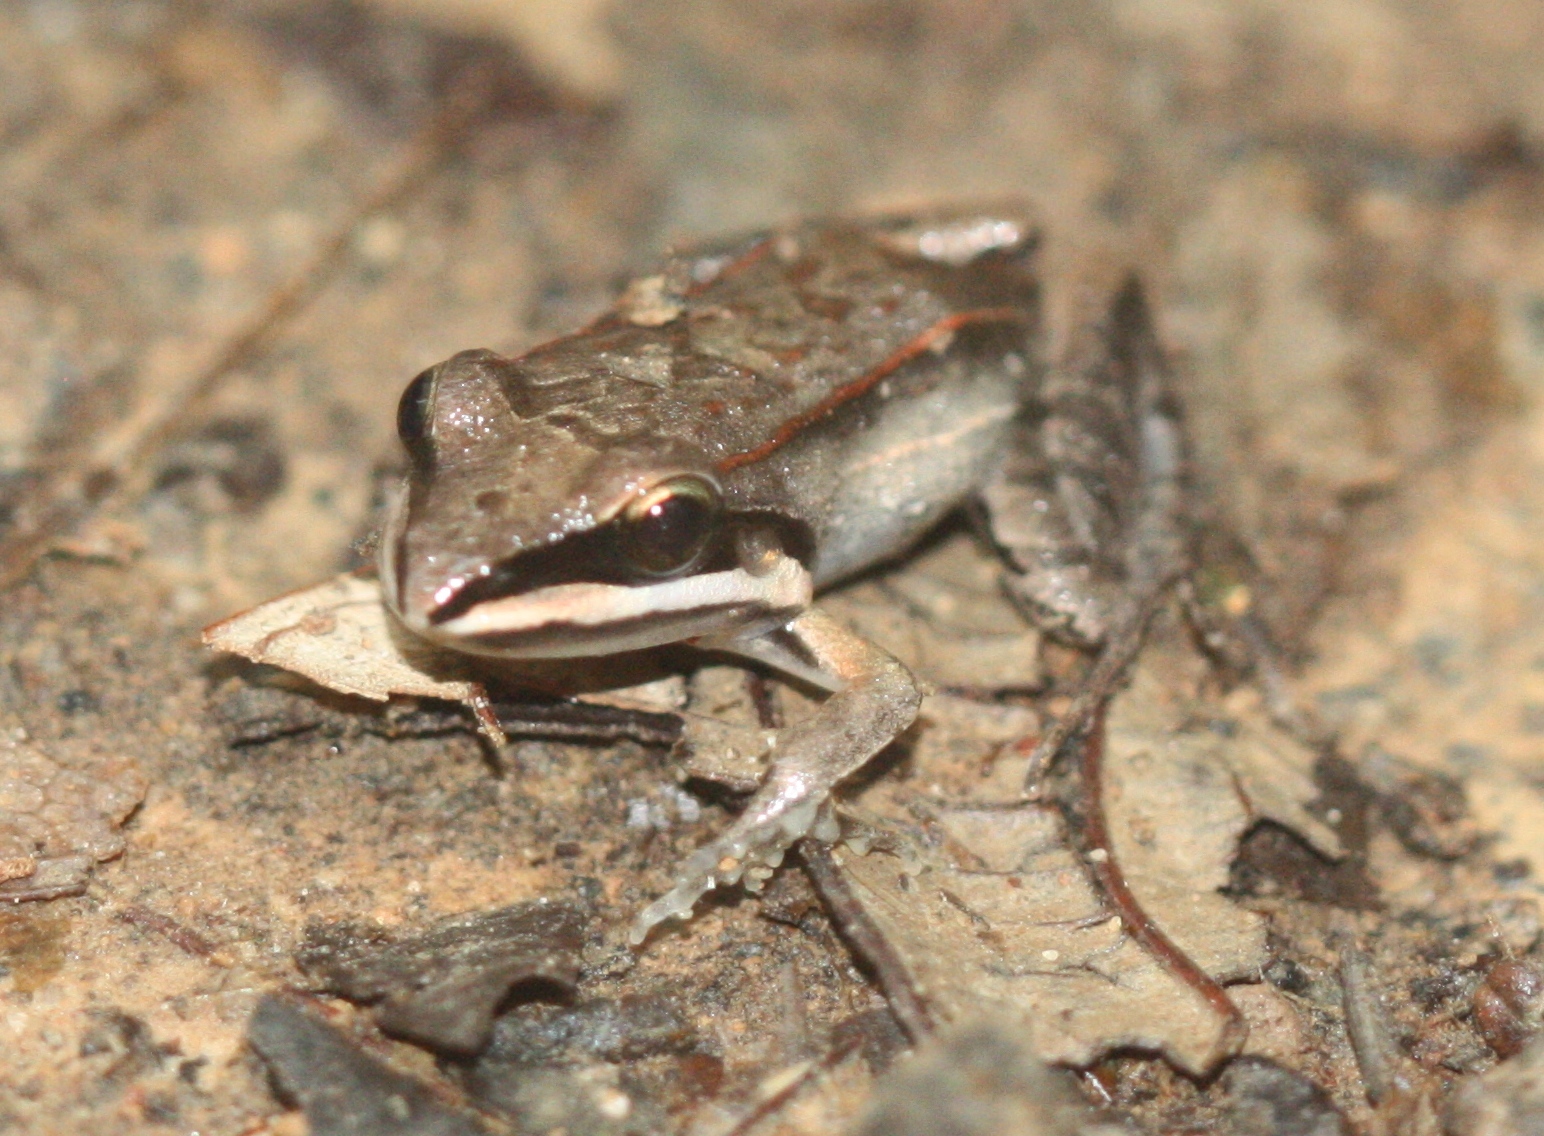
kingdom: Animalia
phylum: Chordata
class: Amphibia
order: Anura
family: Leptodactylidae
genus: Leptodactylus
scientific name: Leptodactylus didymus
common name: Madre de dios thin-toed frog
